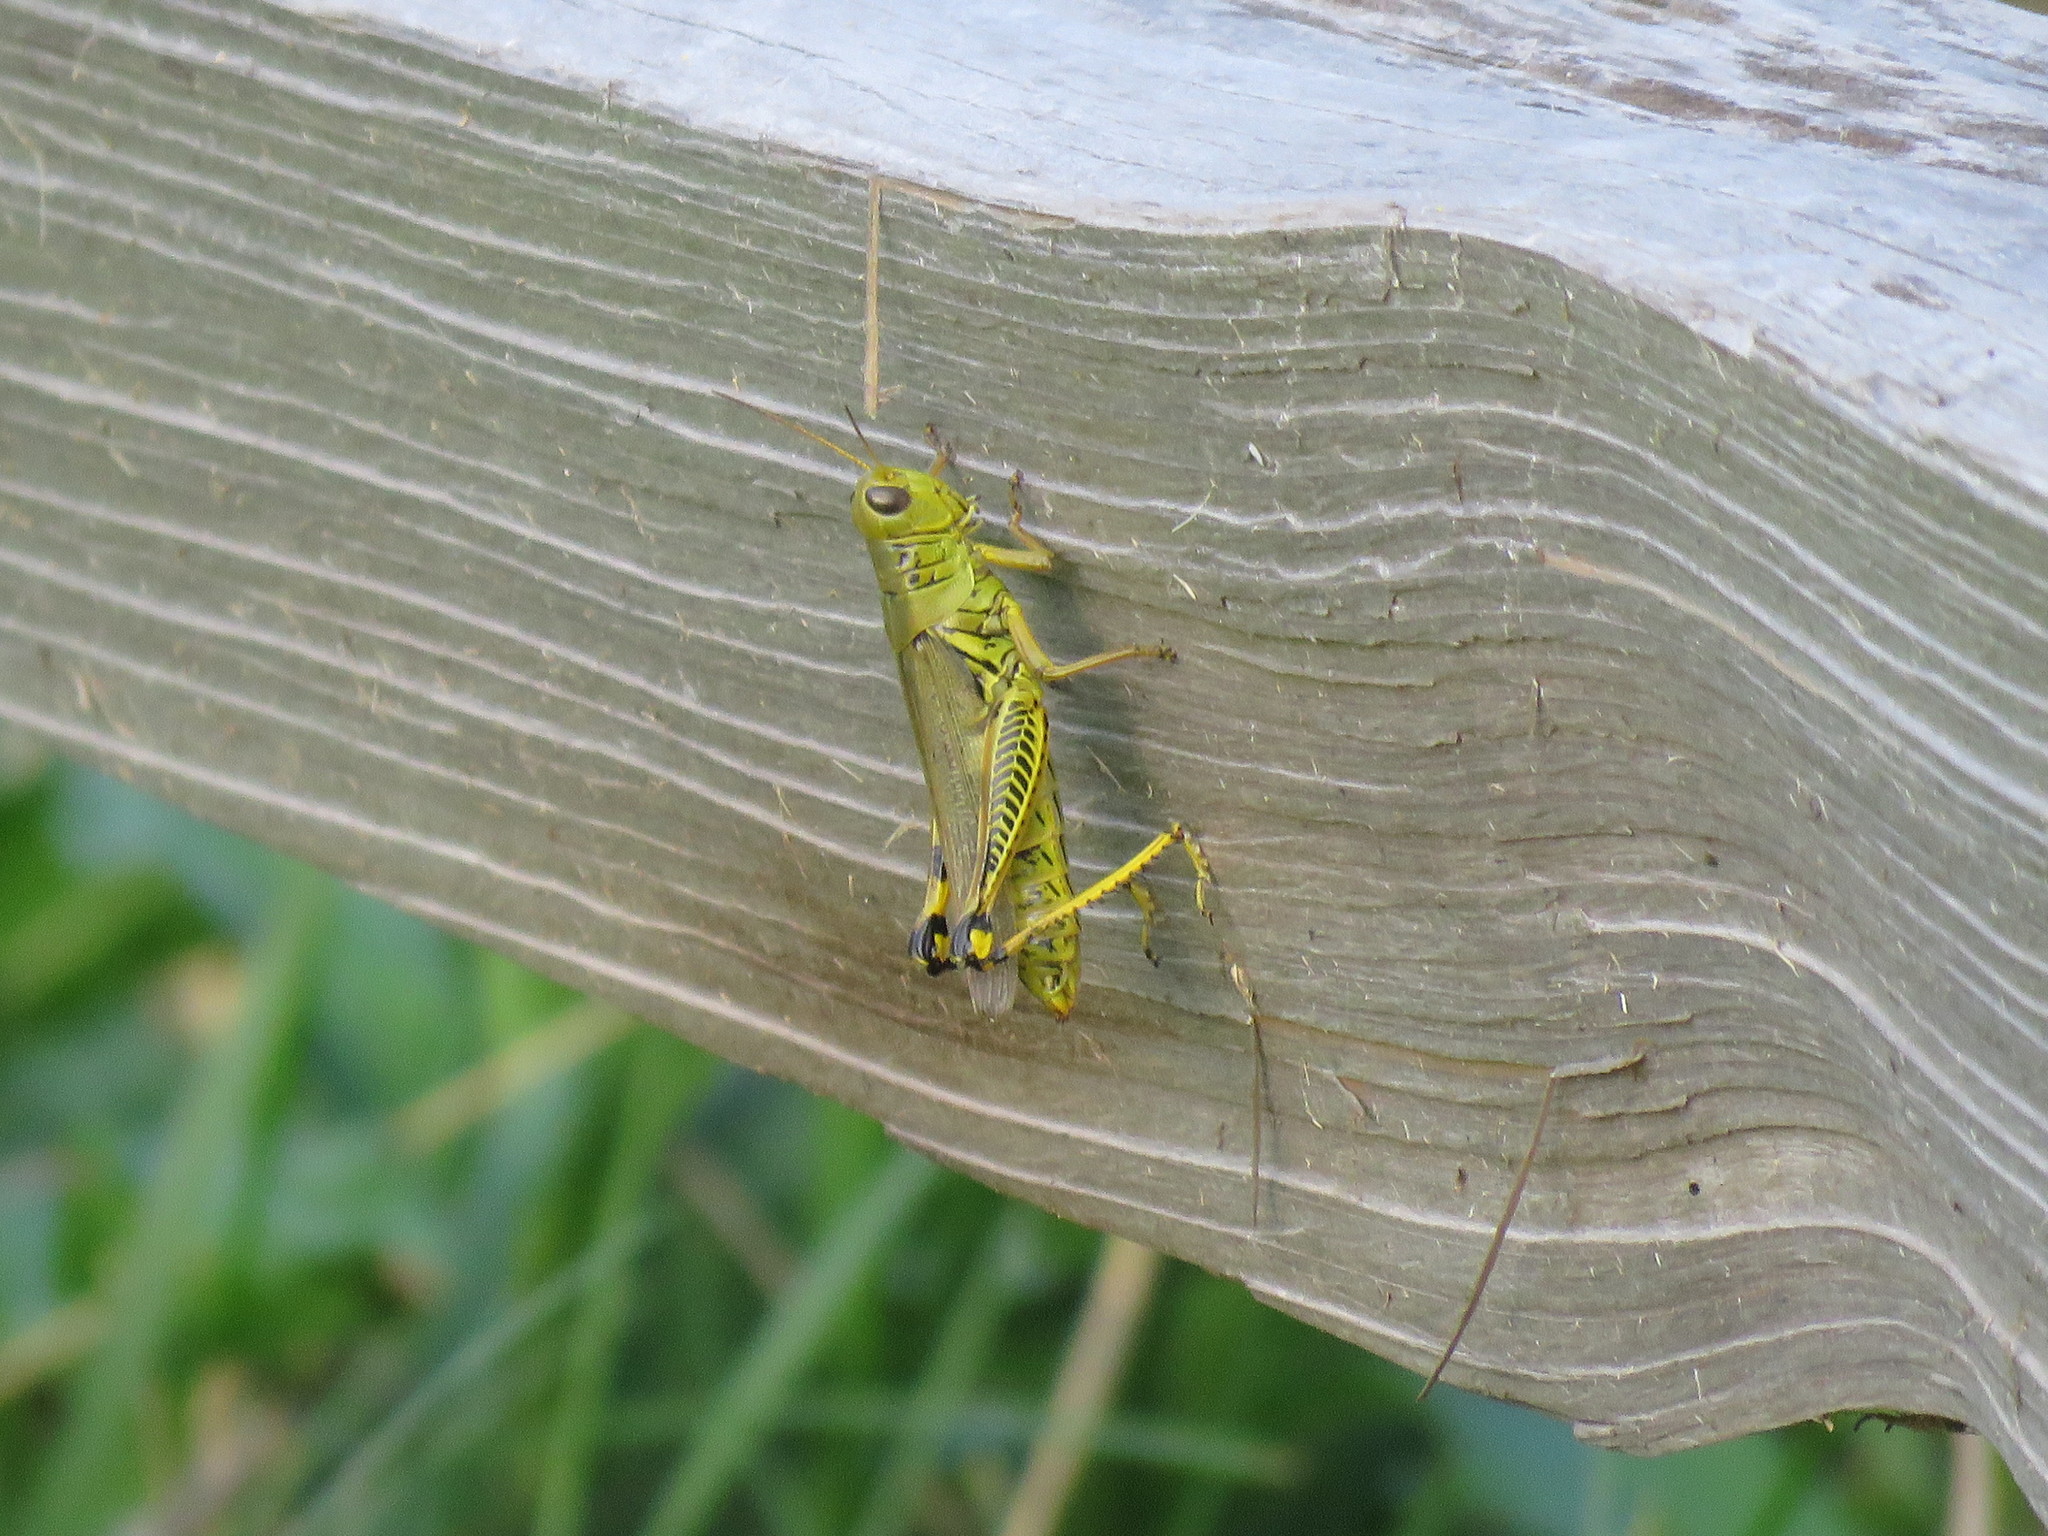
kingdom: Animalia
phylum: Arthropoda
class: Insecta
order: Orthoptera
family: Acrididae
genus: Melanoplus
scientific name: Melanoplus differentialis
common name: Differential grasshopper
